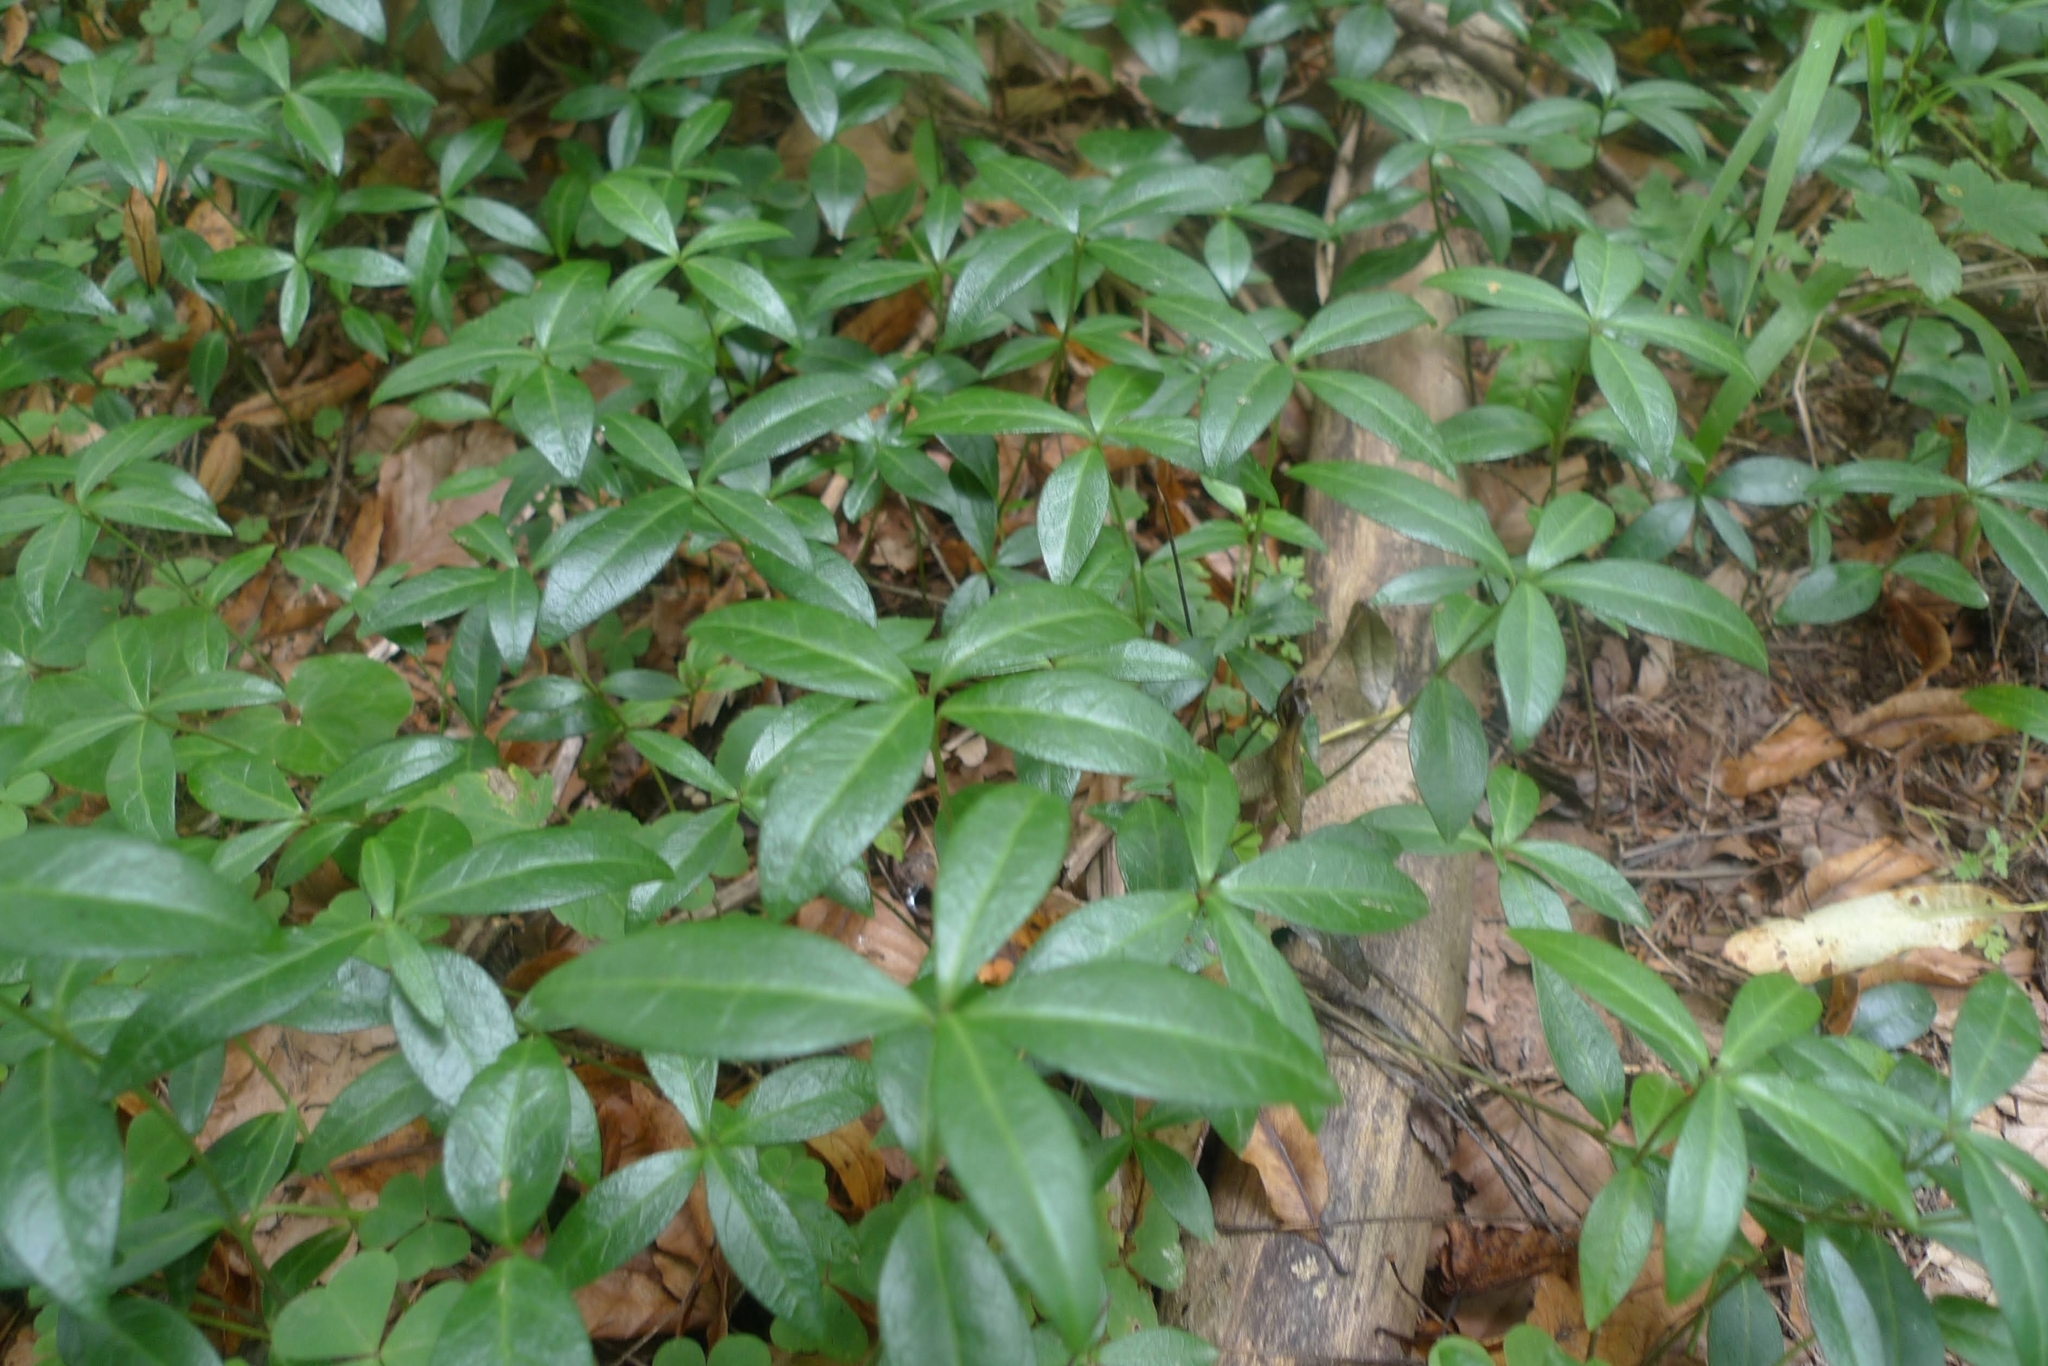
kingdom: Plantae
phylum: Tracheophyta
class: Magnoliopsida
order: Gentianales
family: Apocynaceae
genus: Vinca
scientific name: Vinca minor
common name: Lesser periwinkle
